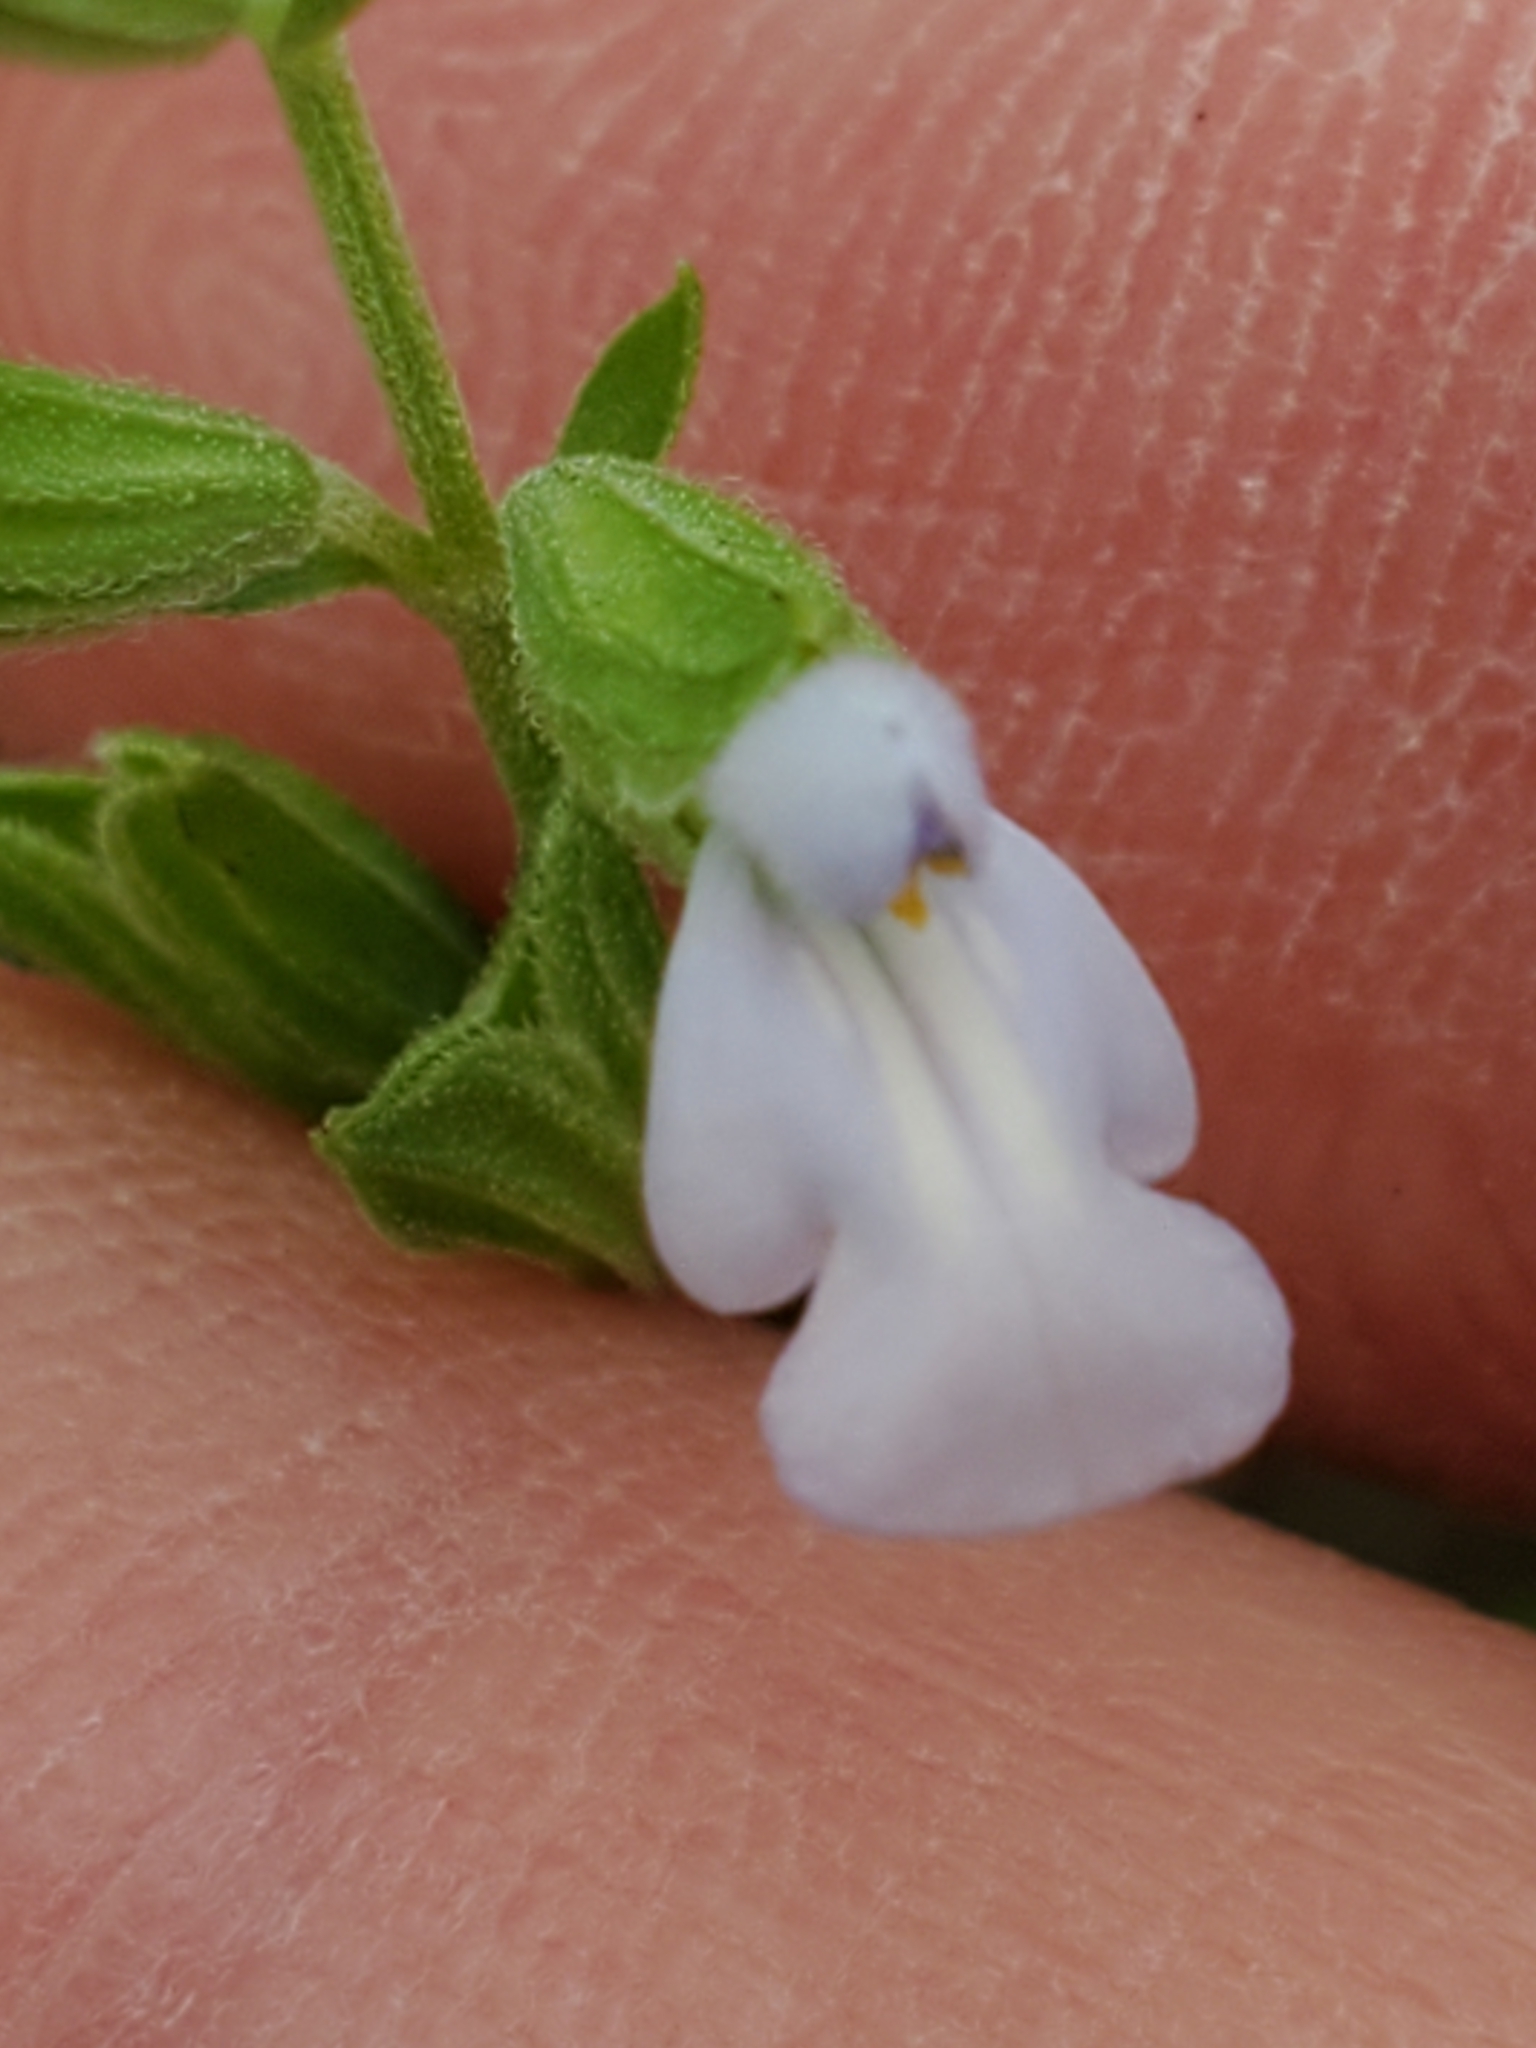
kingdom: Plantae
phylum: Tracheophyta
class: Magnoliopsida
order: Lamiales
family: Lamiaceae
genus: Salvia
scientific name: Salvia reflexa
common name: Mintweed
